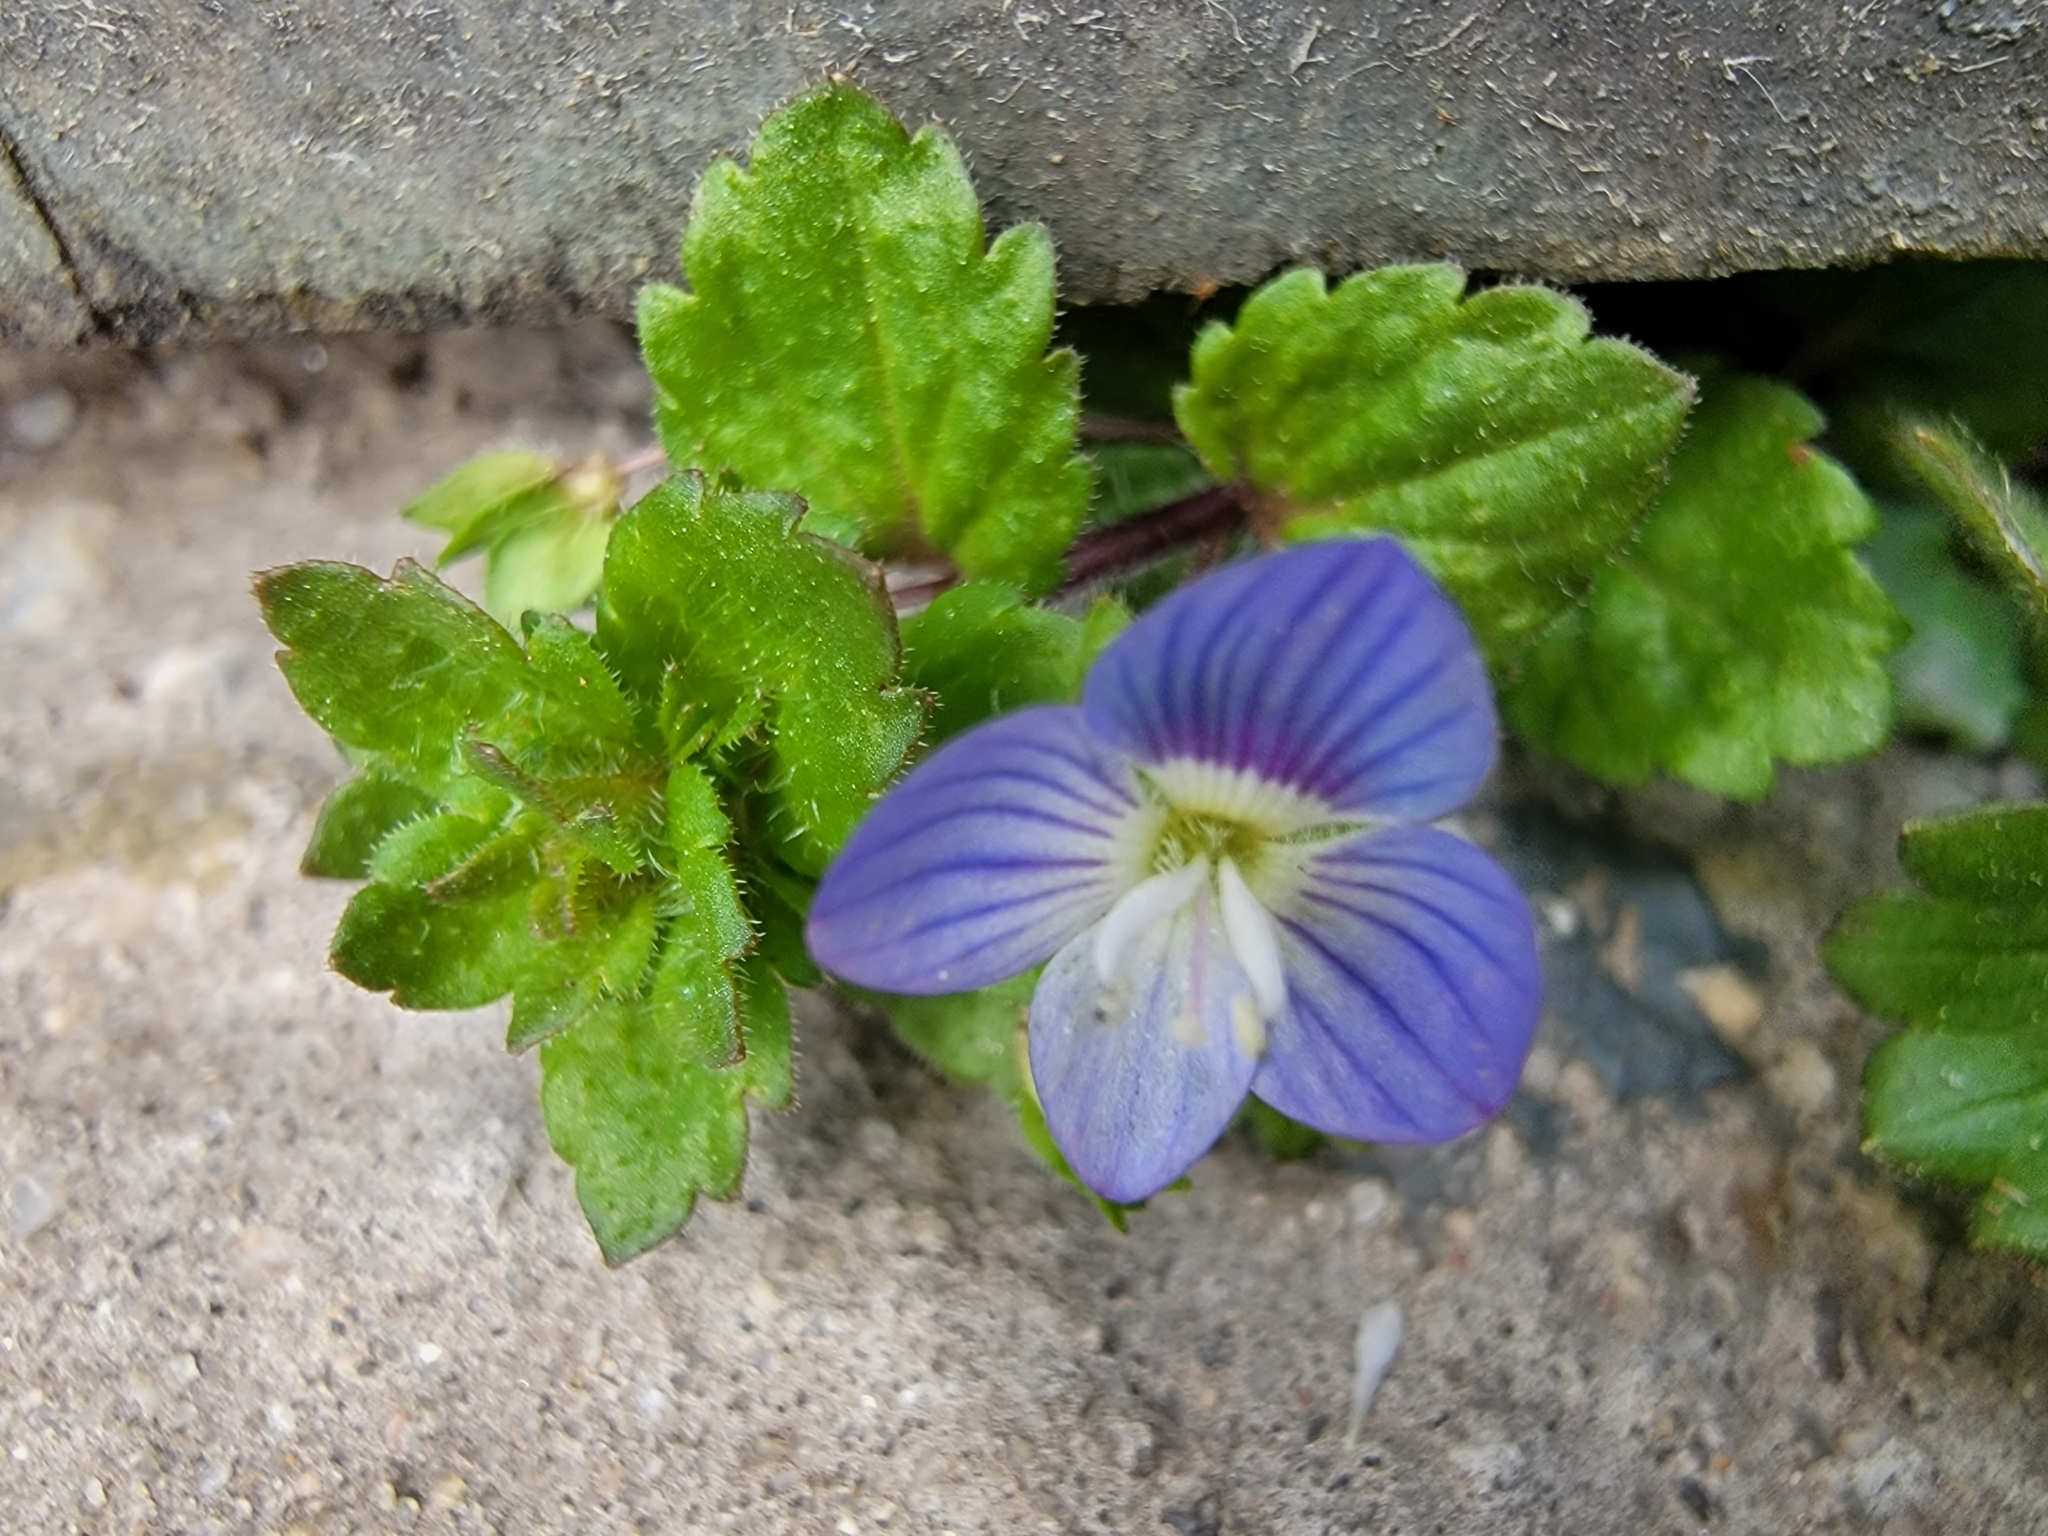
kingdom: Plantae
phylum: Tracheophyta
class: Magnoliopsida
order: Lamiales
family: Plantaginaceae
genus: Veronica
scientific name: Veronica persica
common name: Common field-speedwell
